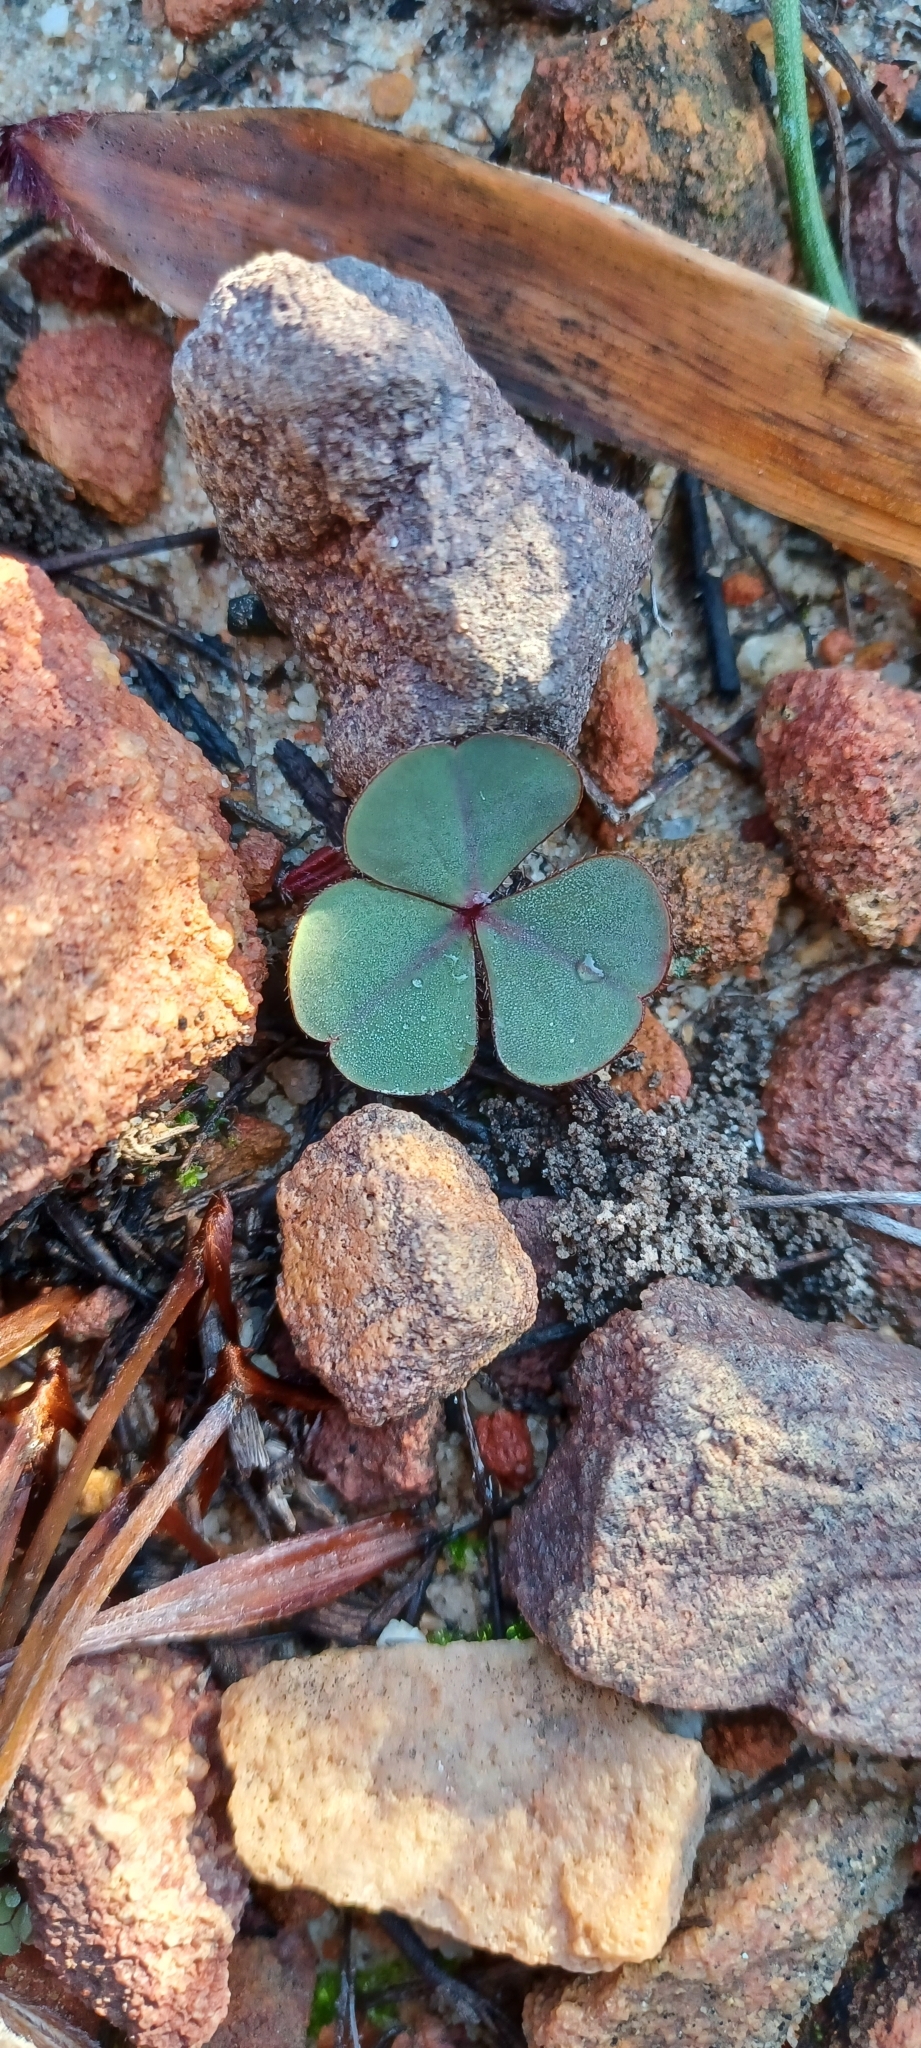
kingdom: Plantae
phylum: Tracheophyta
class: Magnoliopsida
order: Oxalidales
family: Oxalidaceae
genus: Oxalis
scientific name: Oxalis eckloniana
